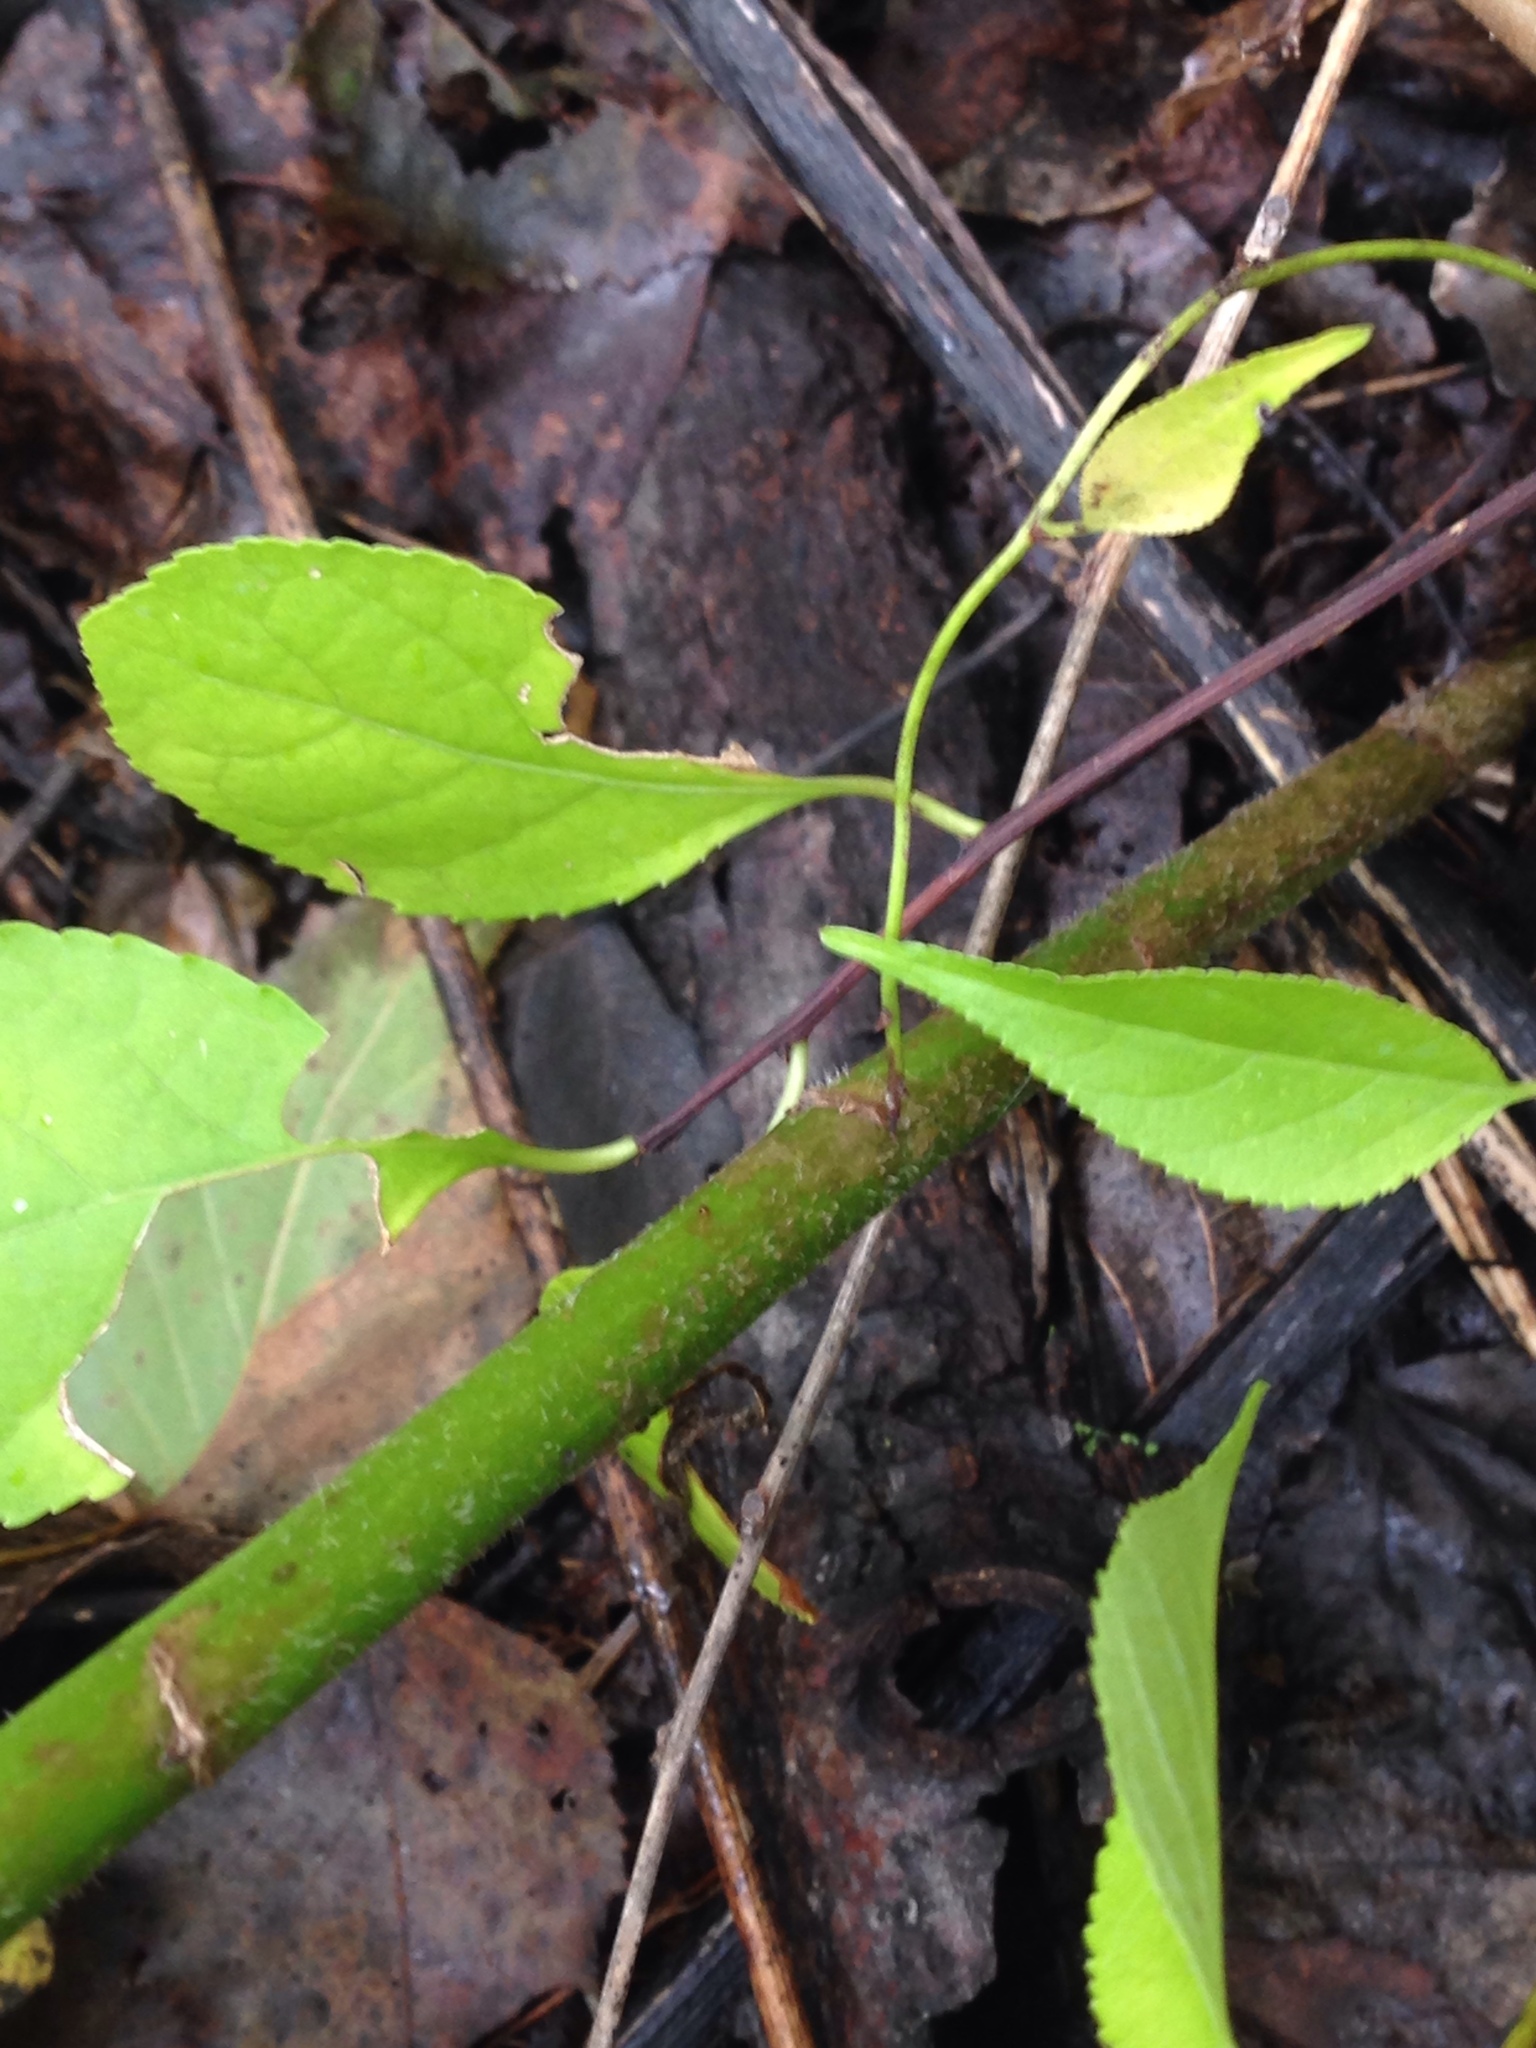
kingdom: Plantae
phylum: Tracheophyta
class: Magnoliopsida
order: Asterales
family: Asteraceae
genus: Solidago
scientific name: Solidago canadensis
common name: Canada goldenrod
